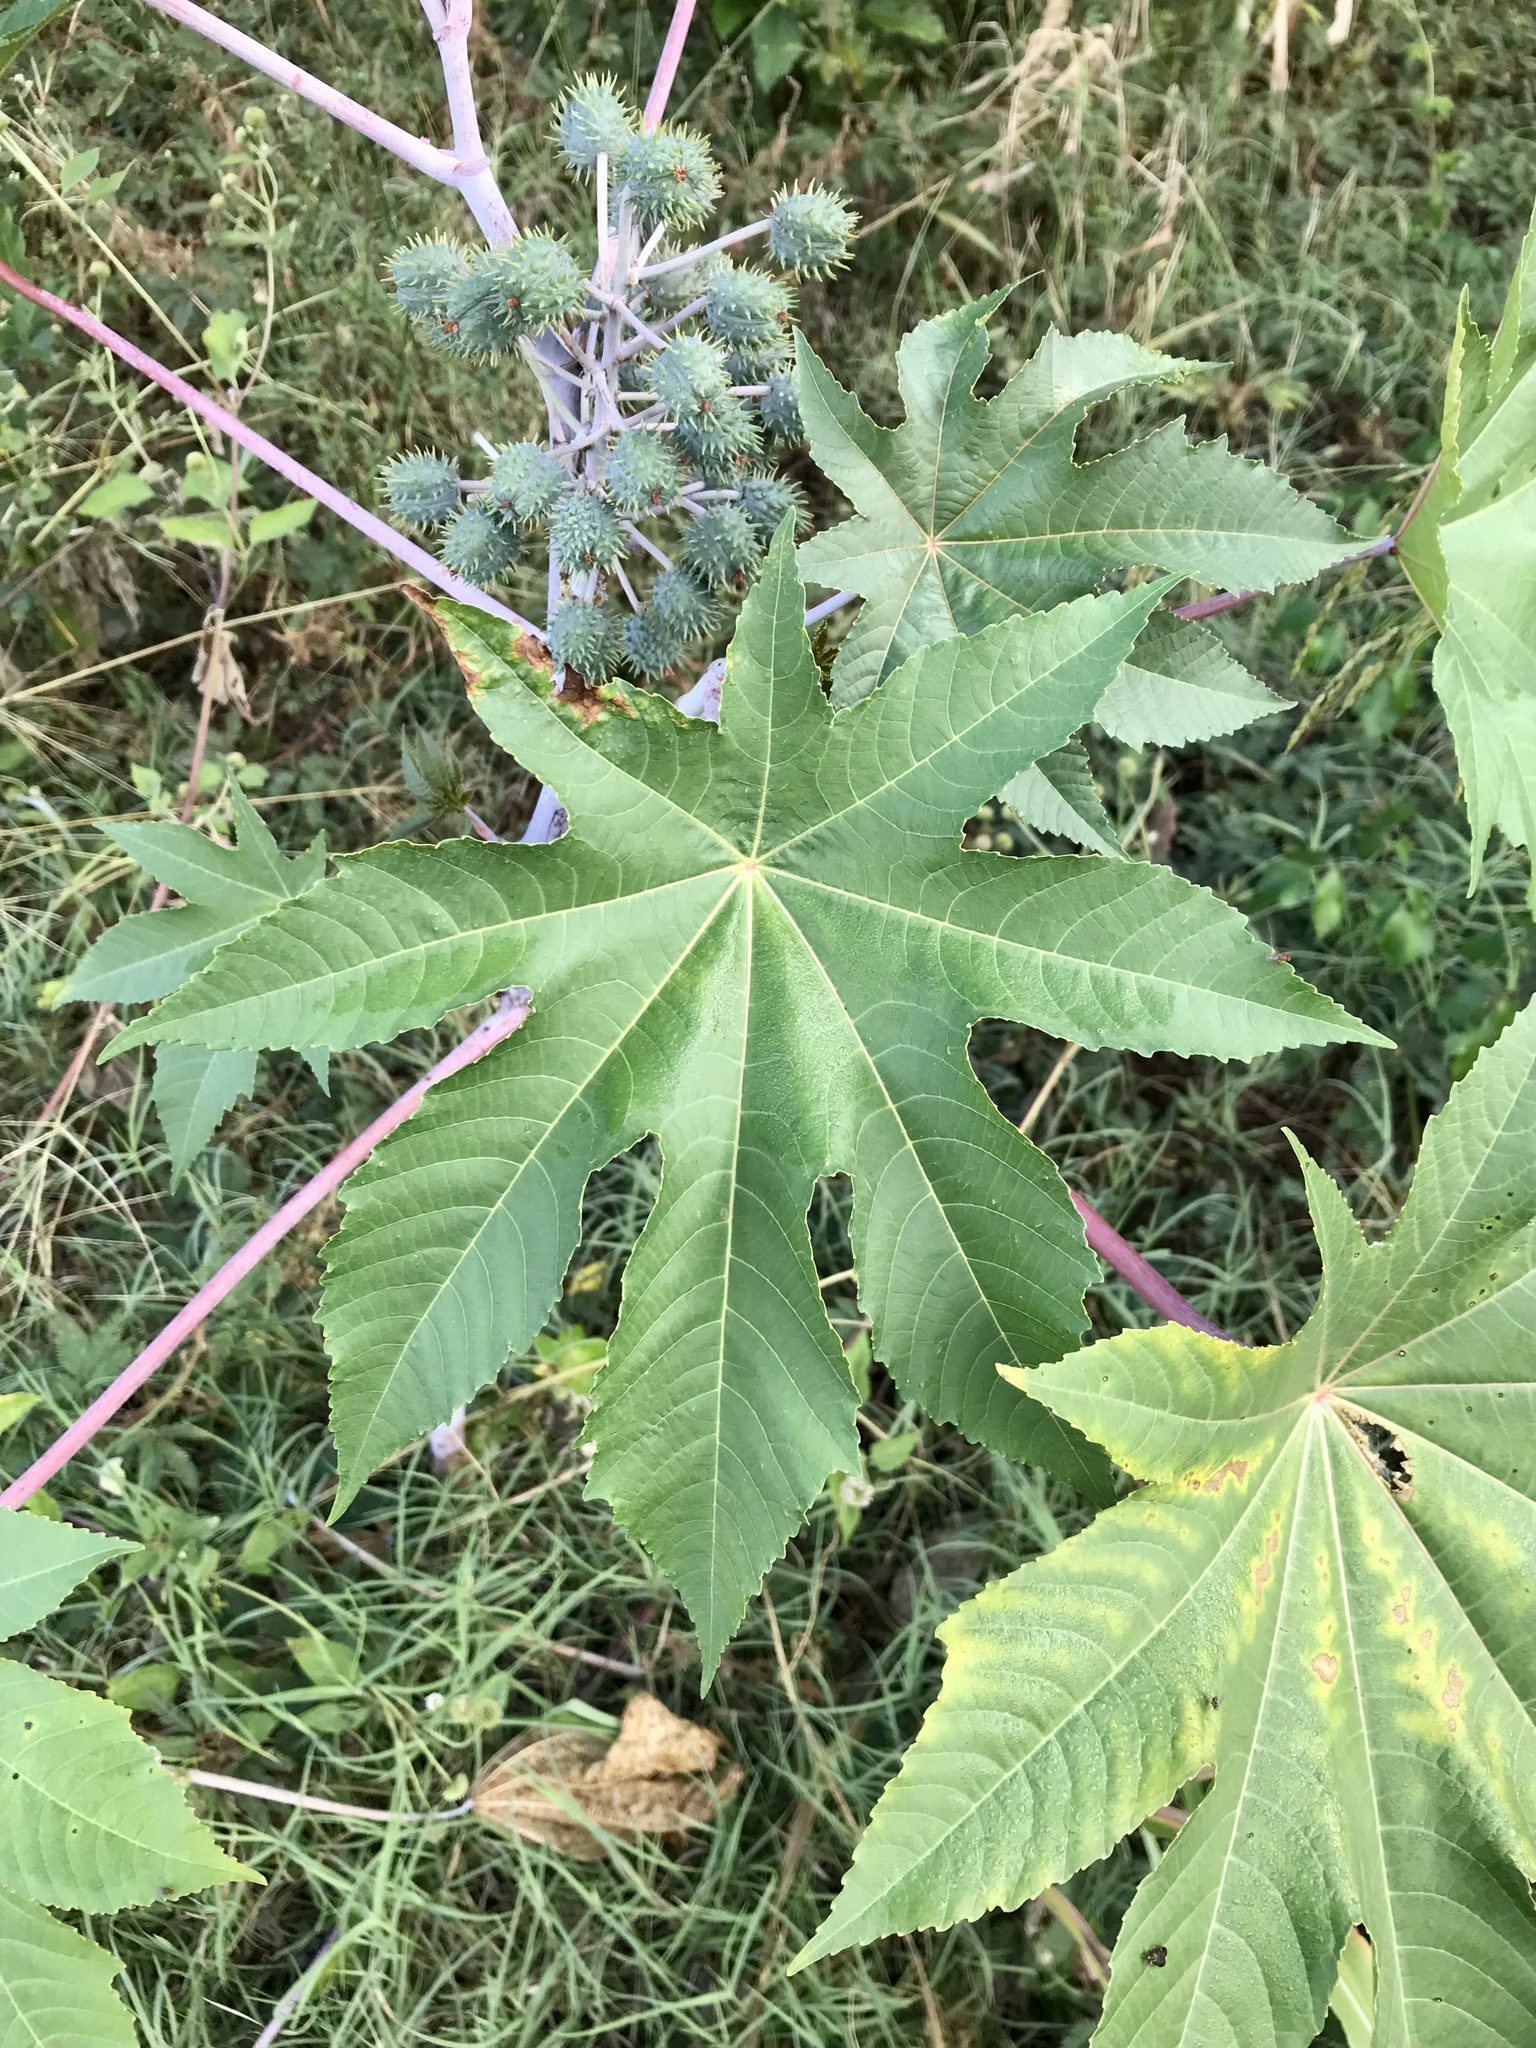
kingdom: Plantae
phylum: Tracheophyta
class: Magnoliopsida
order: Malpighiales
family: Euphorbiaceae
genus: Ricinus
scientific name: Ricinus communis
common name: Castor-oil-plant
